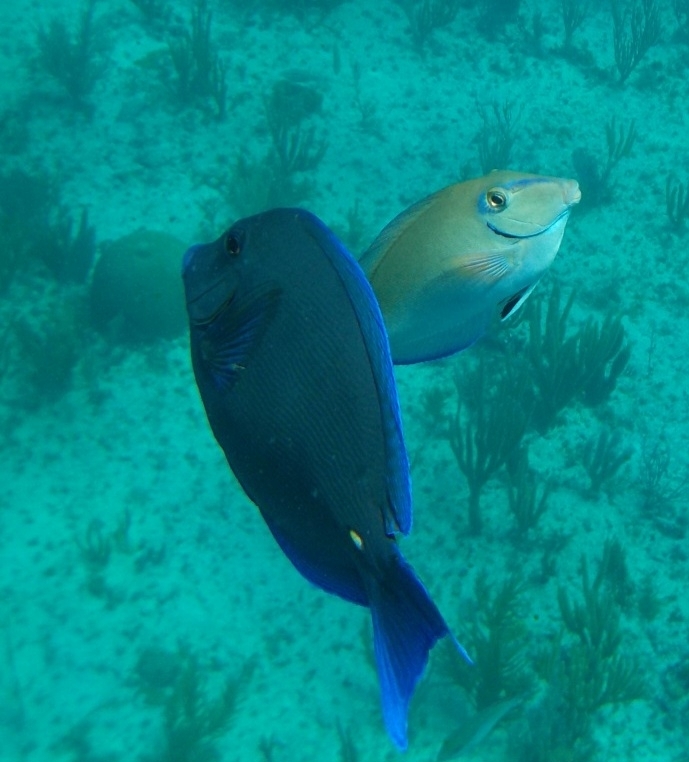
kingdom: Animalia
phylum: Chordata
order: Perciformes
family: Acanthuridae
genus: Acanthurus
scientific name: Acanthurus coeruleus
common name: Blue tang
